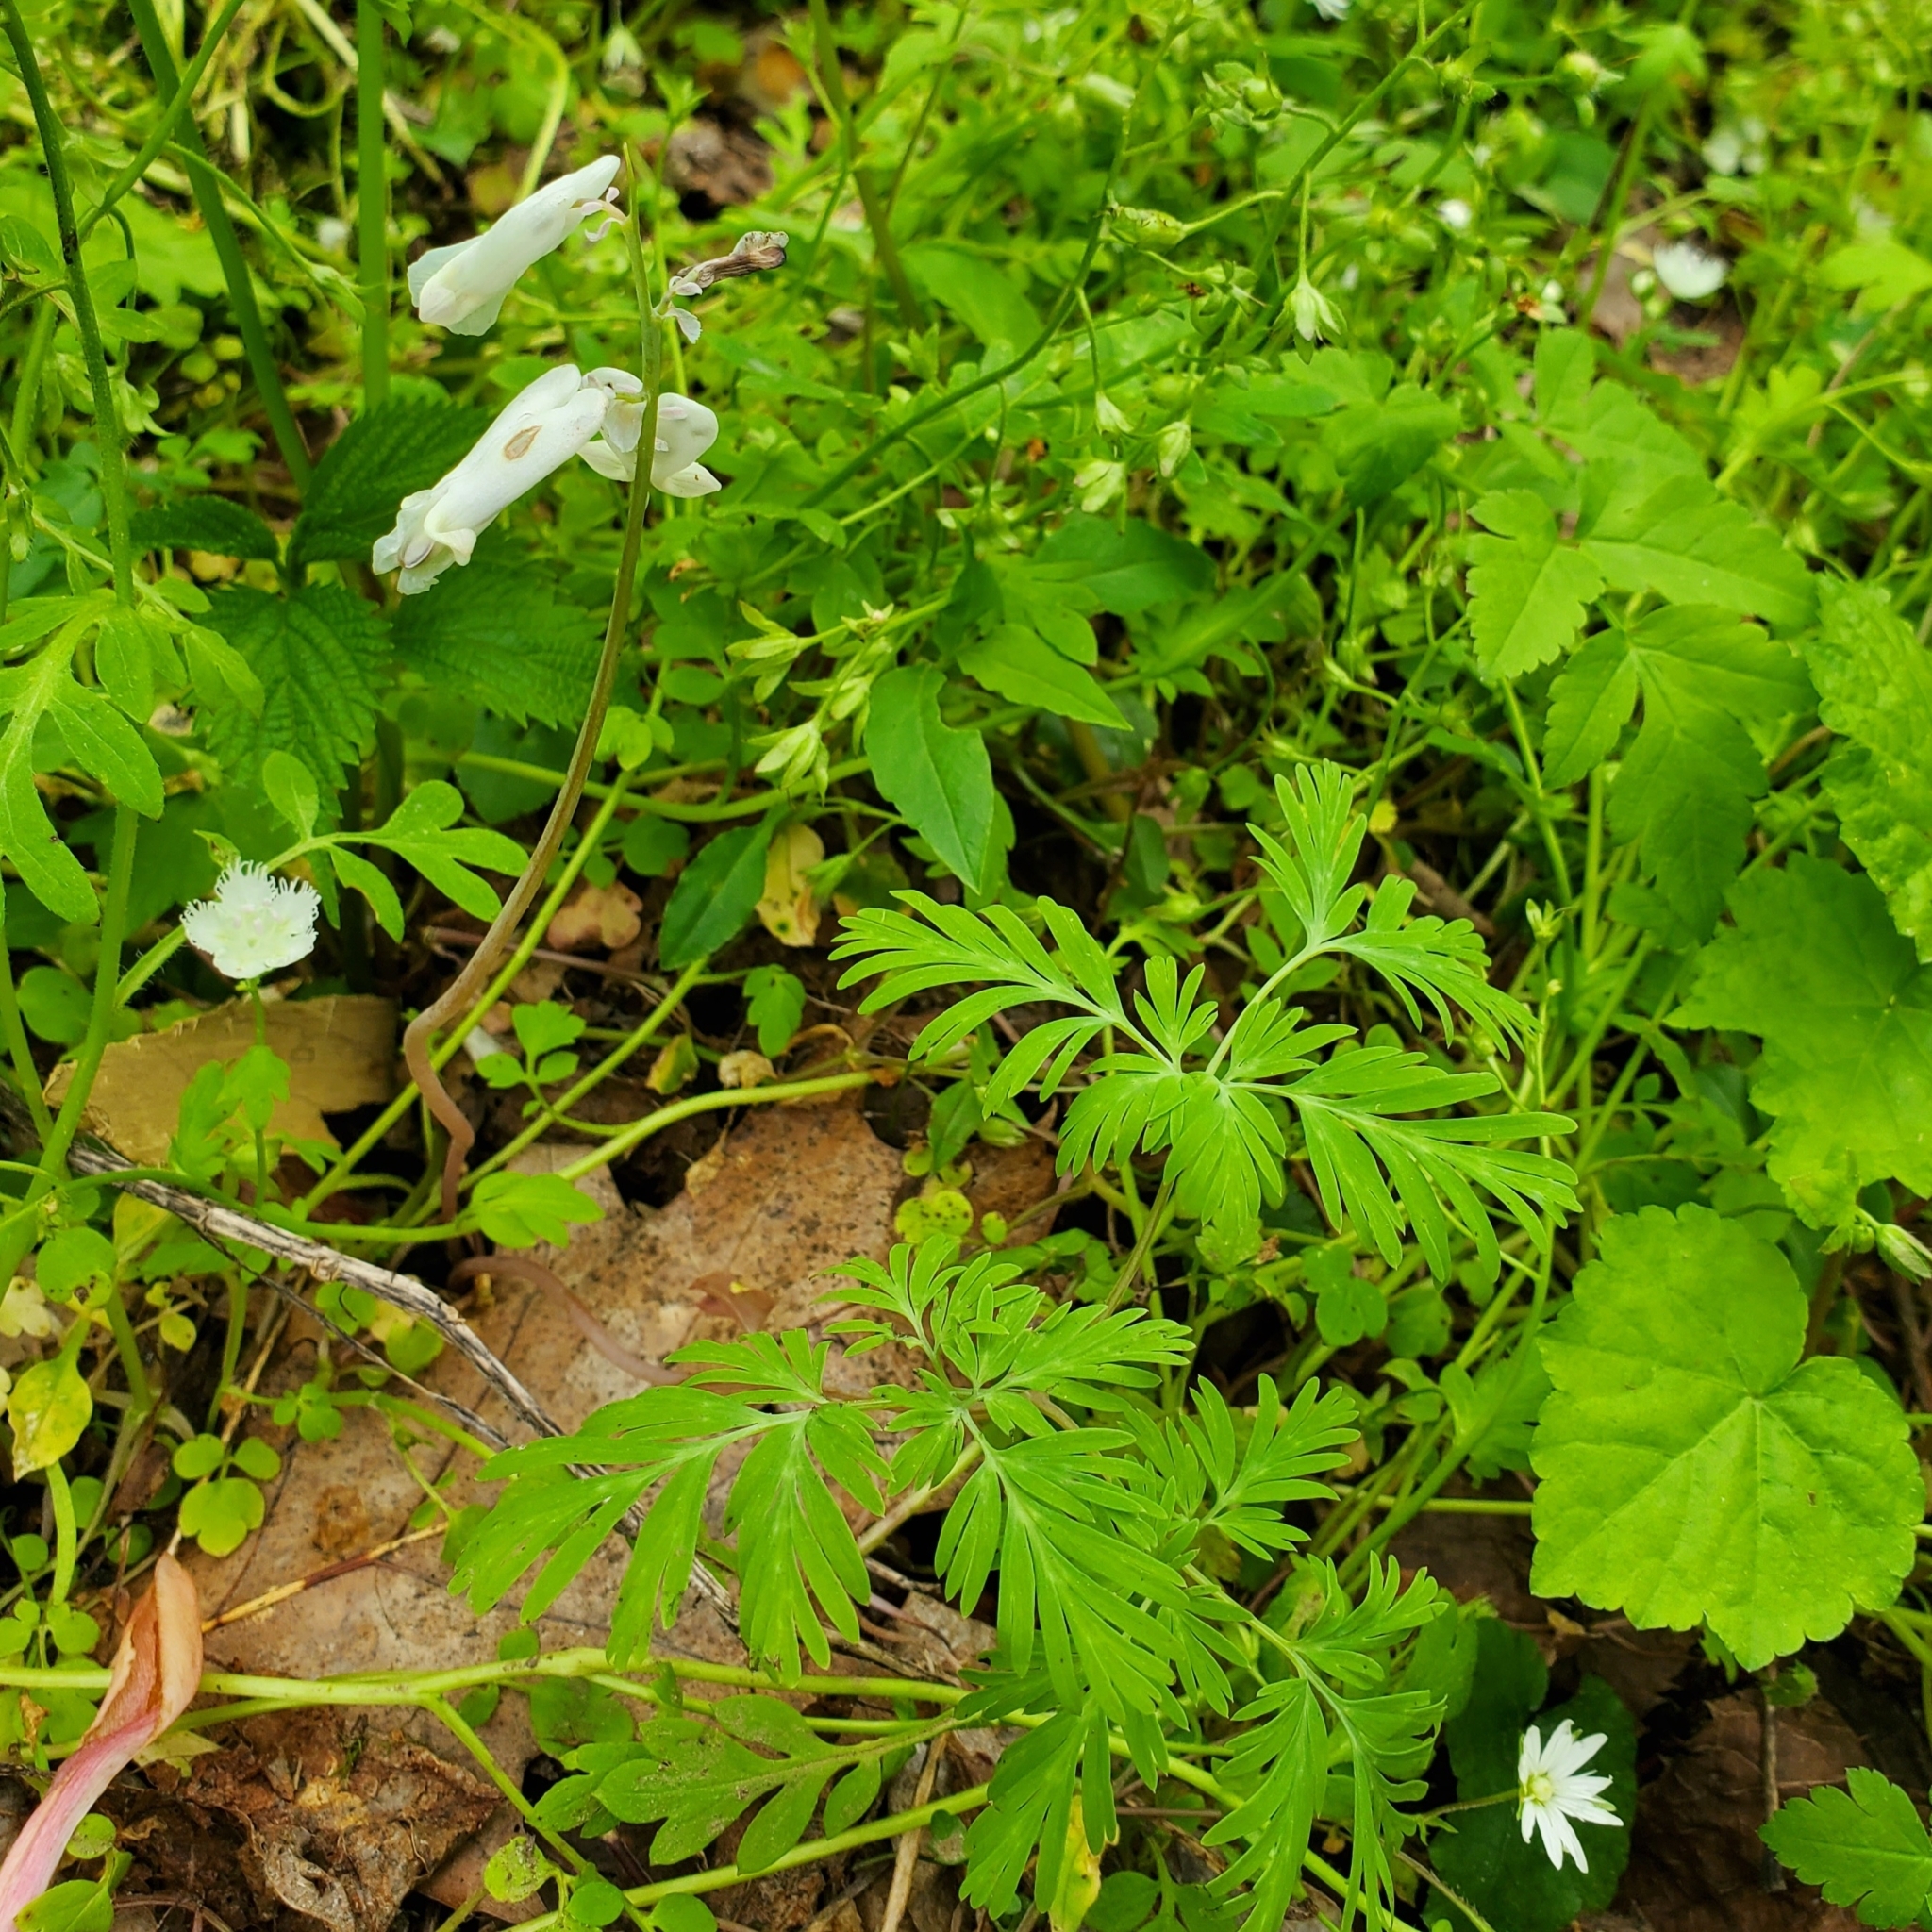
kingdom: Plantae
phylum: Tracheophyta
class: Magnoliopsida
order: Ranunculales
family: Papaveraceae
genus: Dicentra
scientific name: Dicentra canadensis
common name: Squirrel-corn
